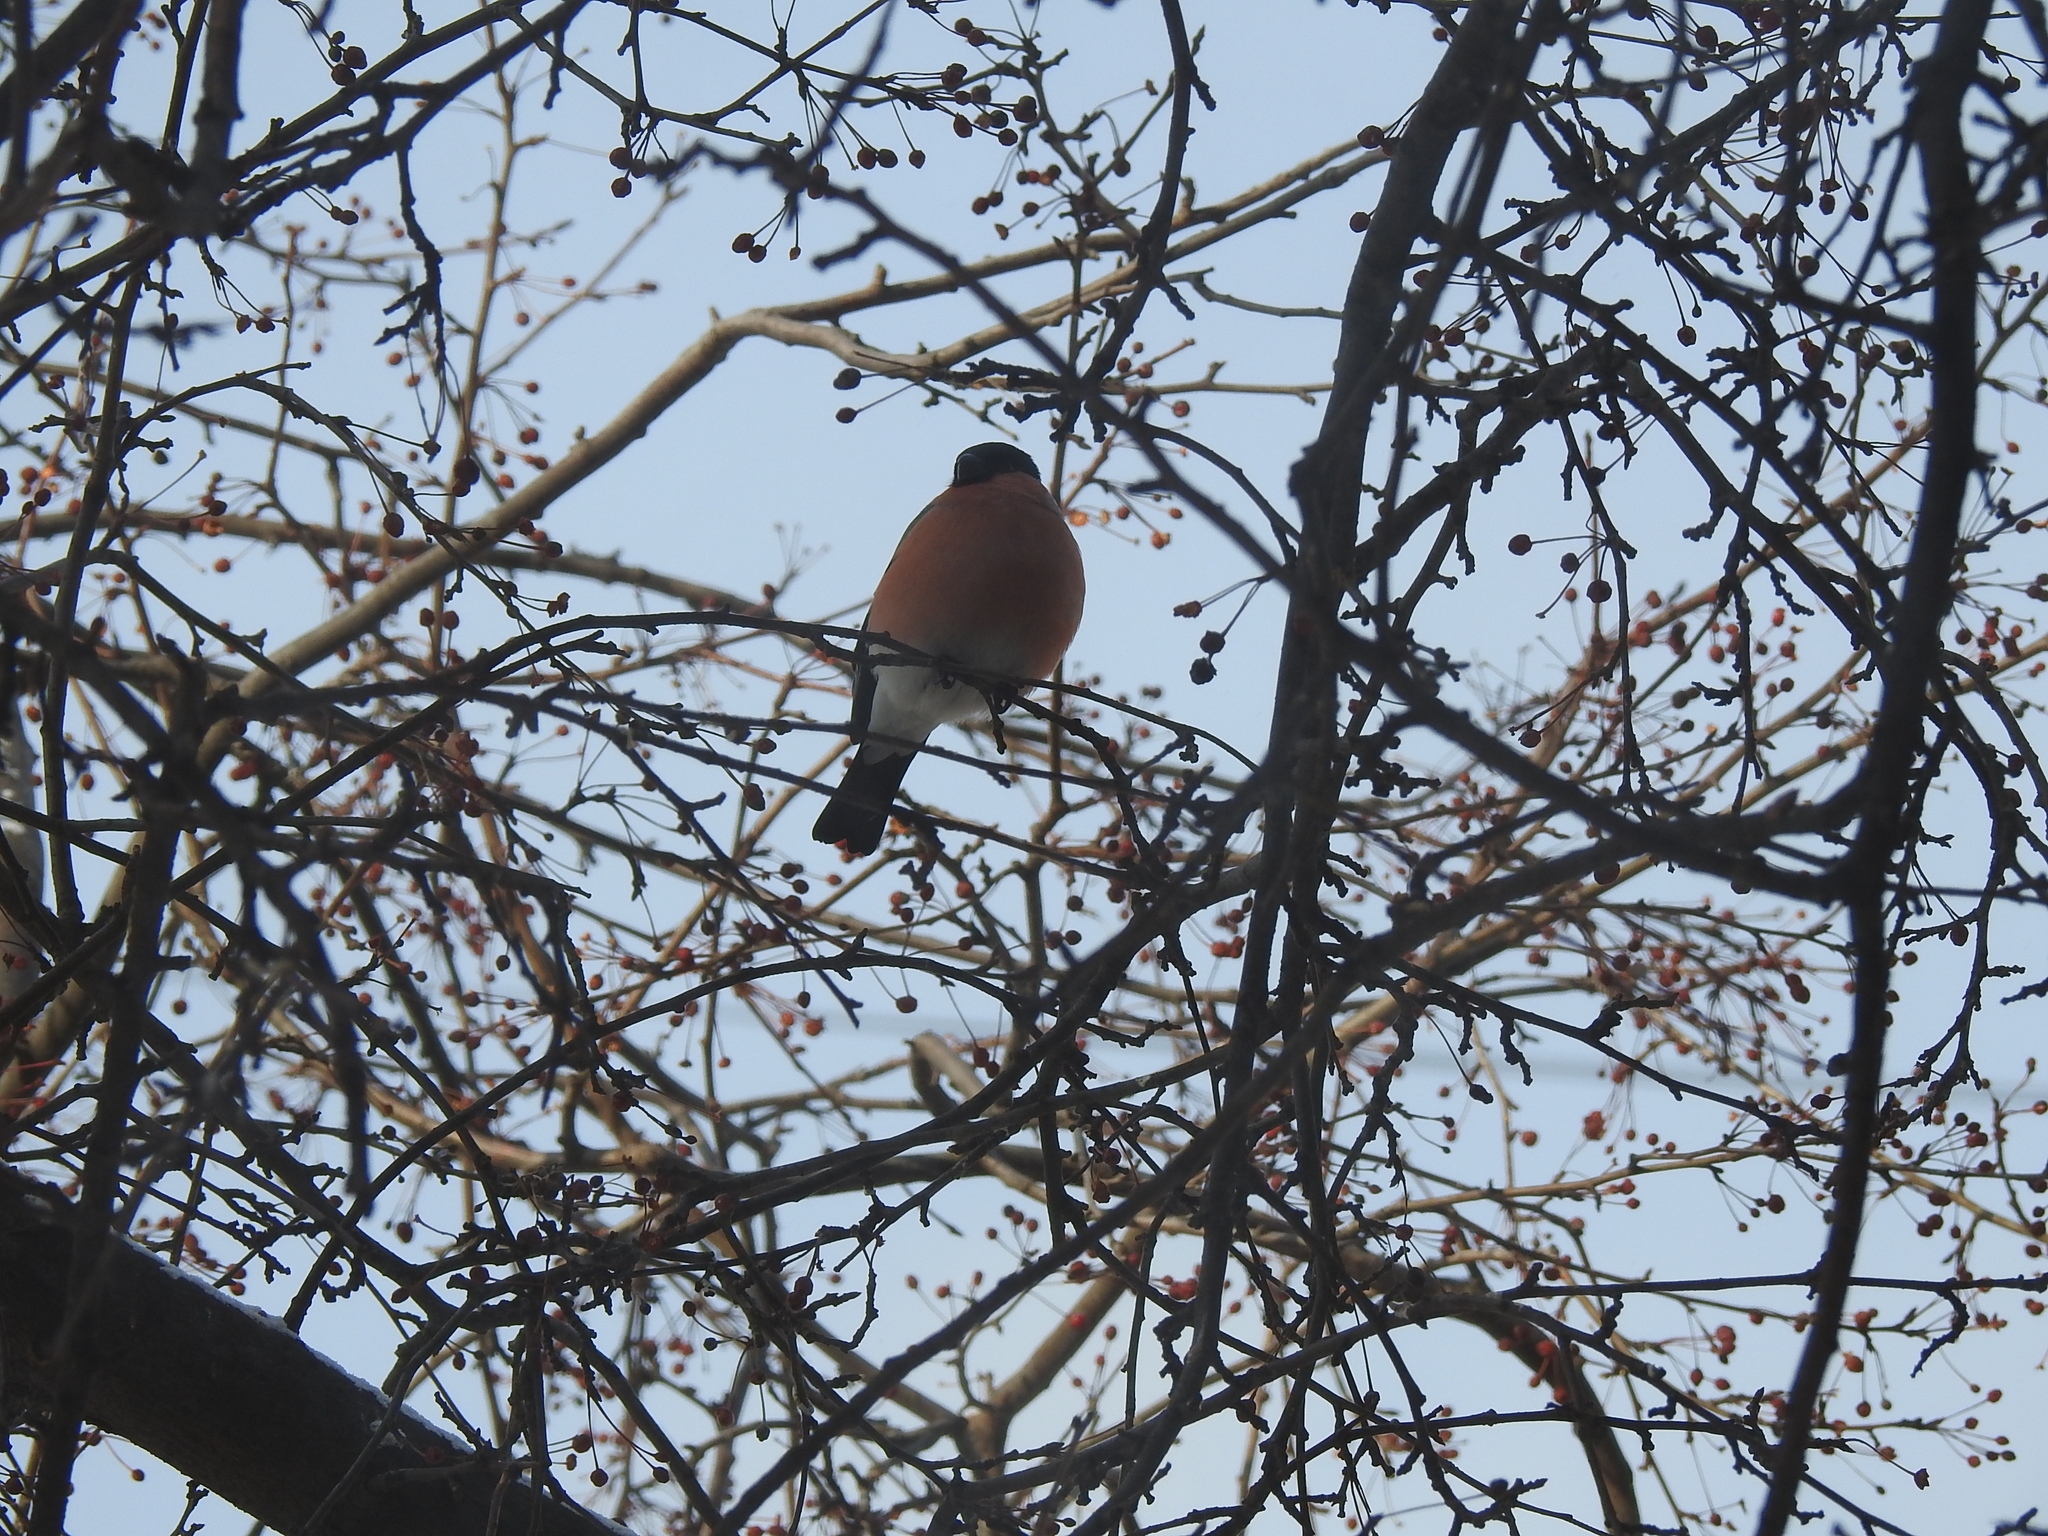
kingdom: Animalia
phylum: Chordata
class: Aves
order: Passeriformes
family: Fringillidae
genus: Pyrrhula
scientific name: Pyrrhula pyrrhula
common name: Eurasian bullfinch
